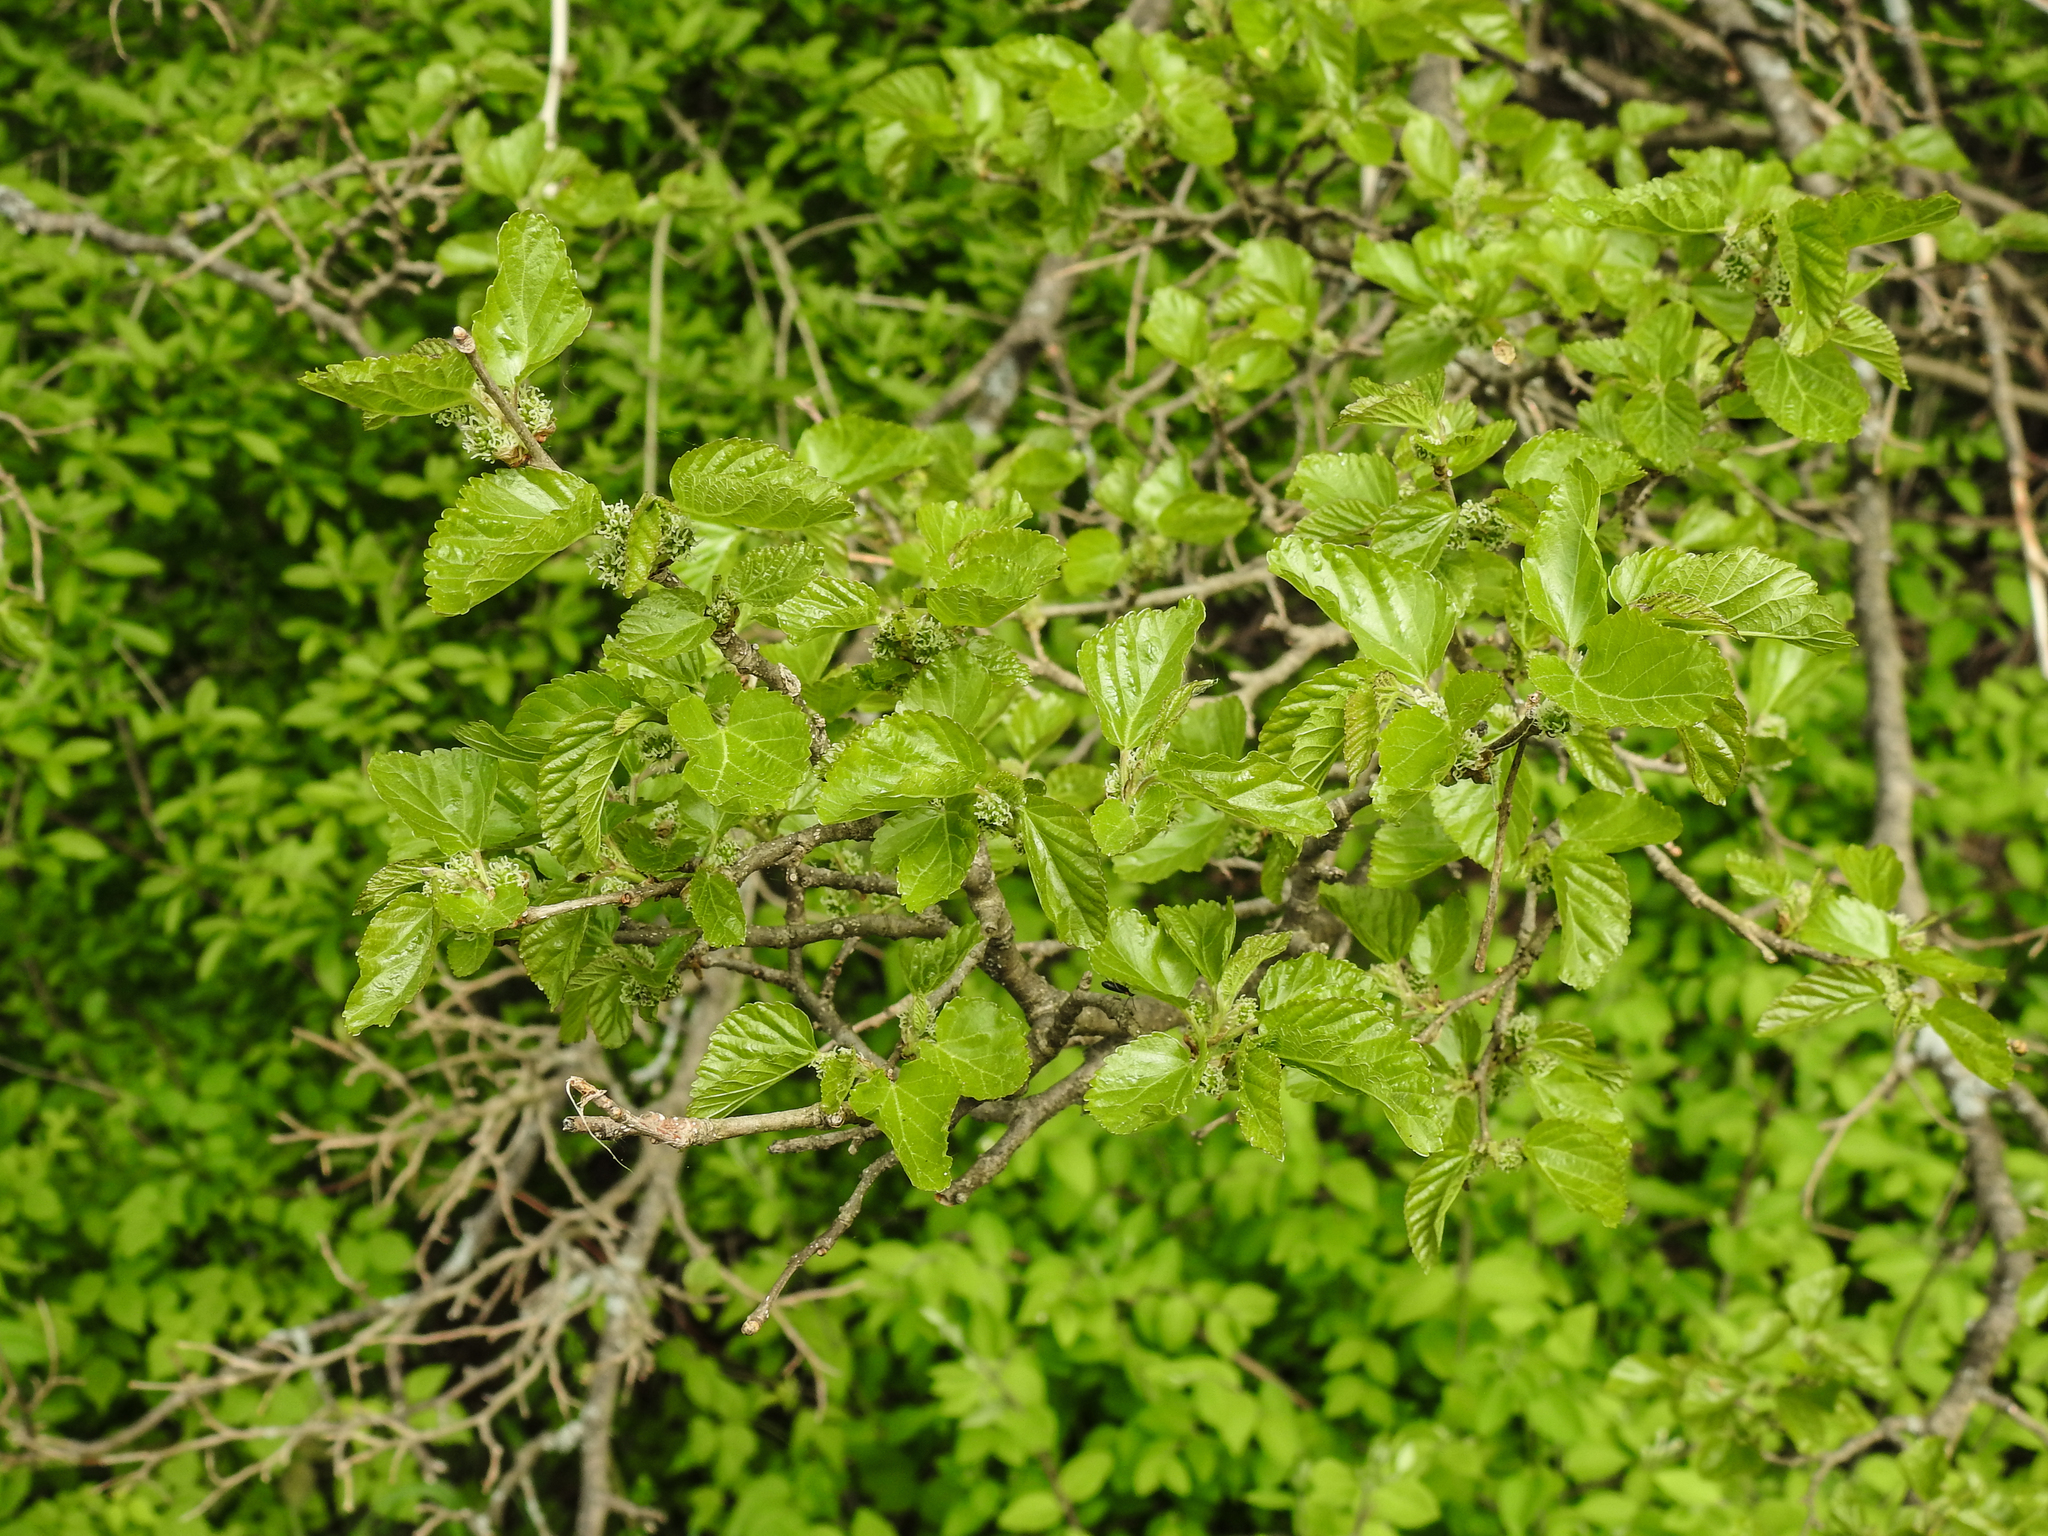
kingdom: Plantae
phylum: Tracheophyta
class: Magnoliopsida
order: Rosales
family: Moraceae
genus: Morus
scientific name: Morus alba
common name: White mulberry
